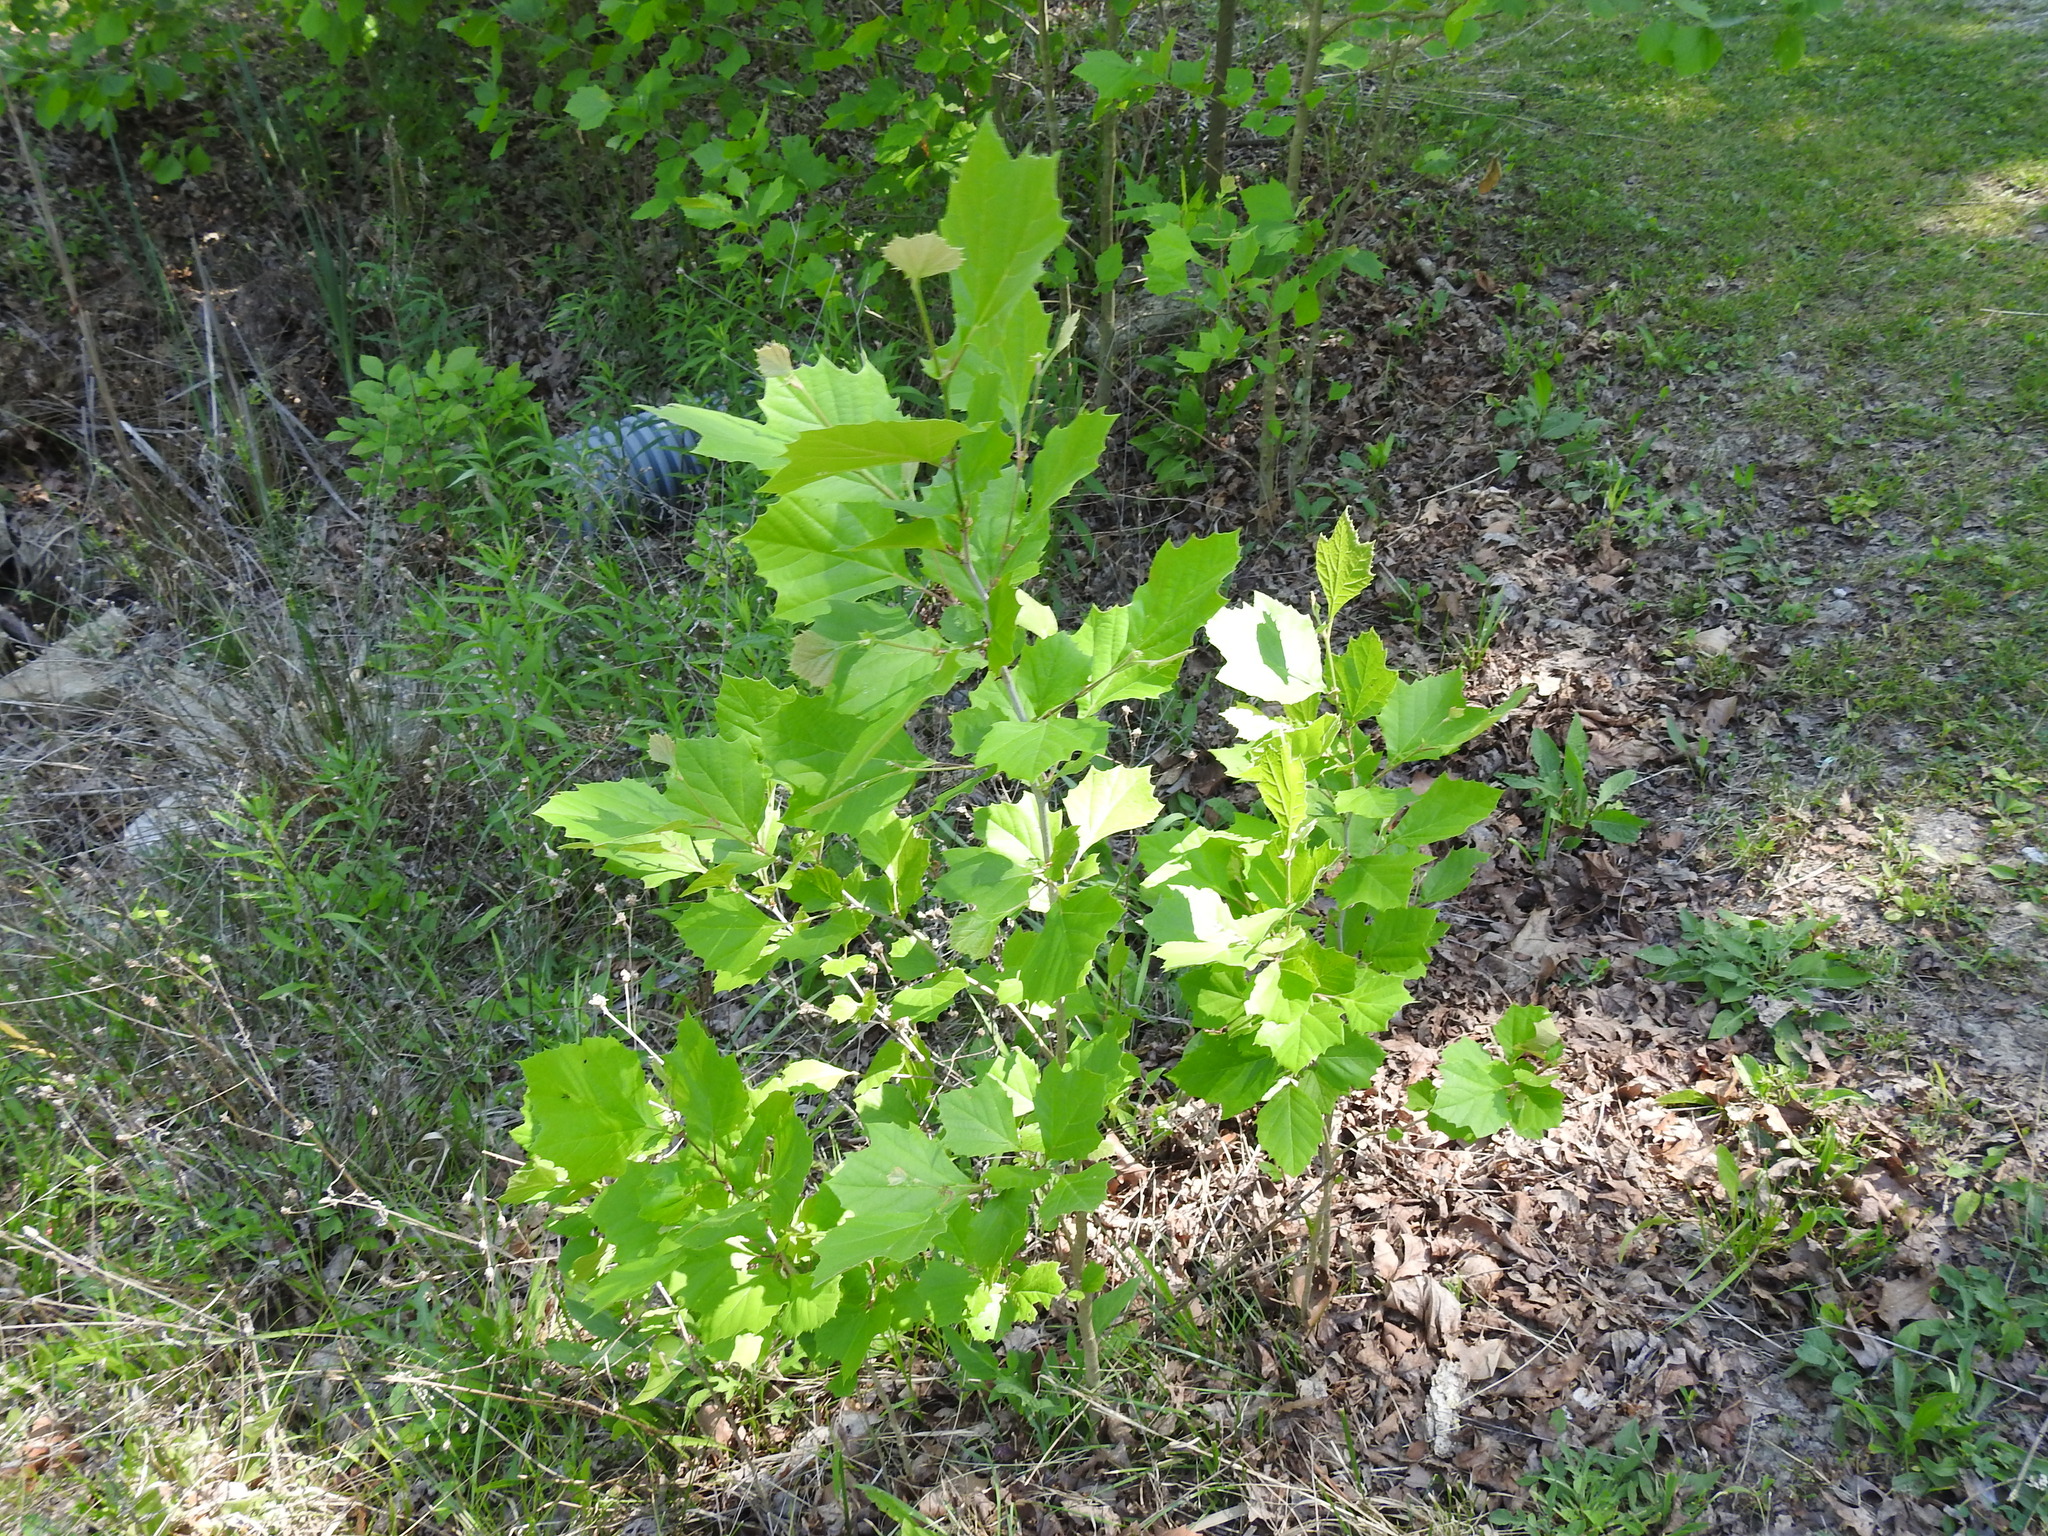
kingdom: Plantae
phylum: Tracheophyta
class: Magnoliopsida
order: Proteales
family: Platanaceae
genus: Platanus
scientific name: Platanus occidentalis
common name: American sycamore
